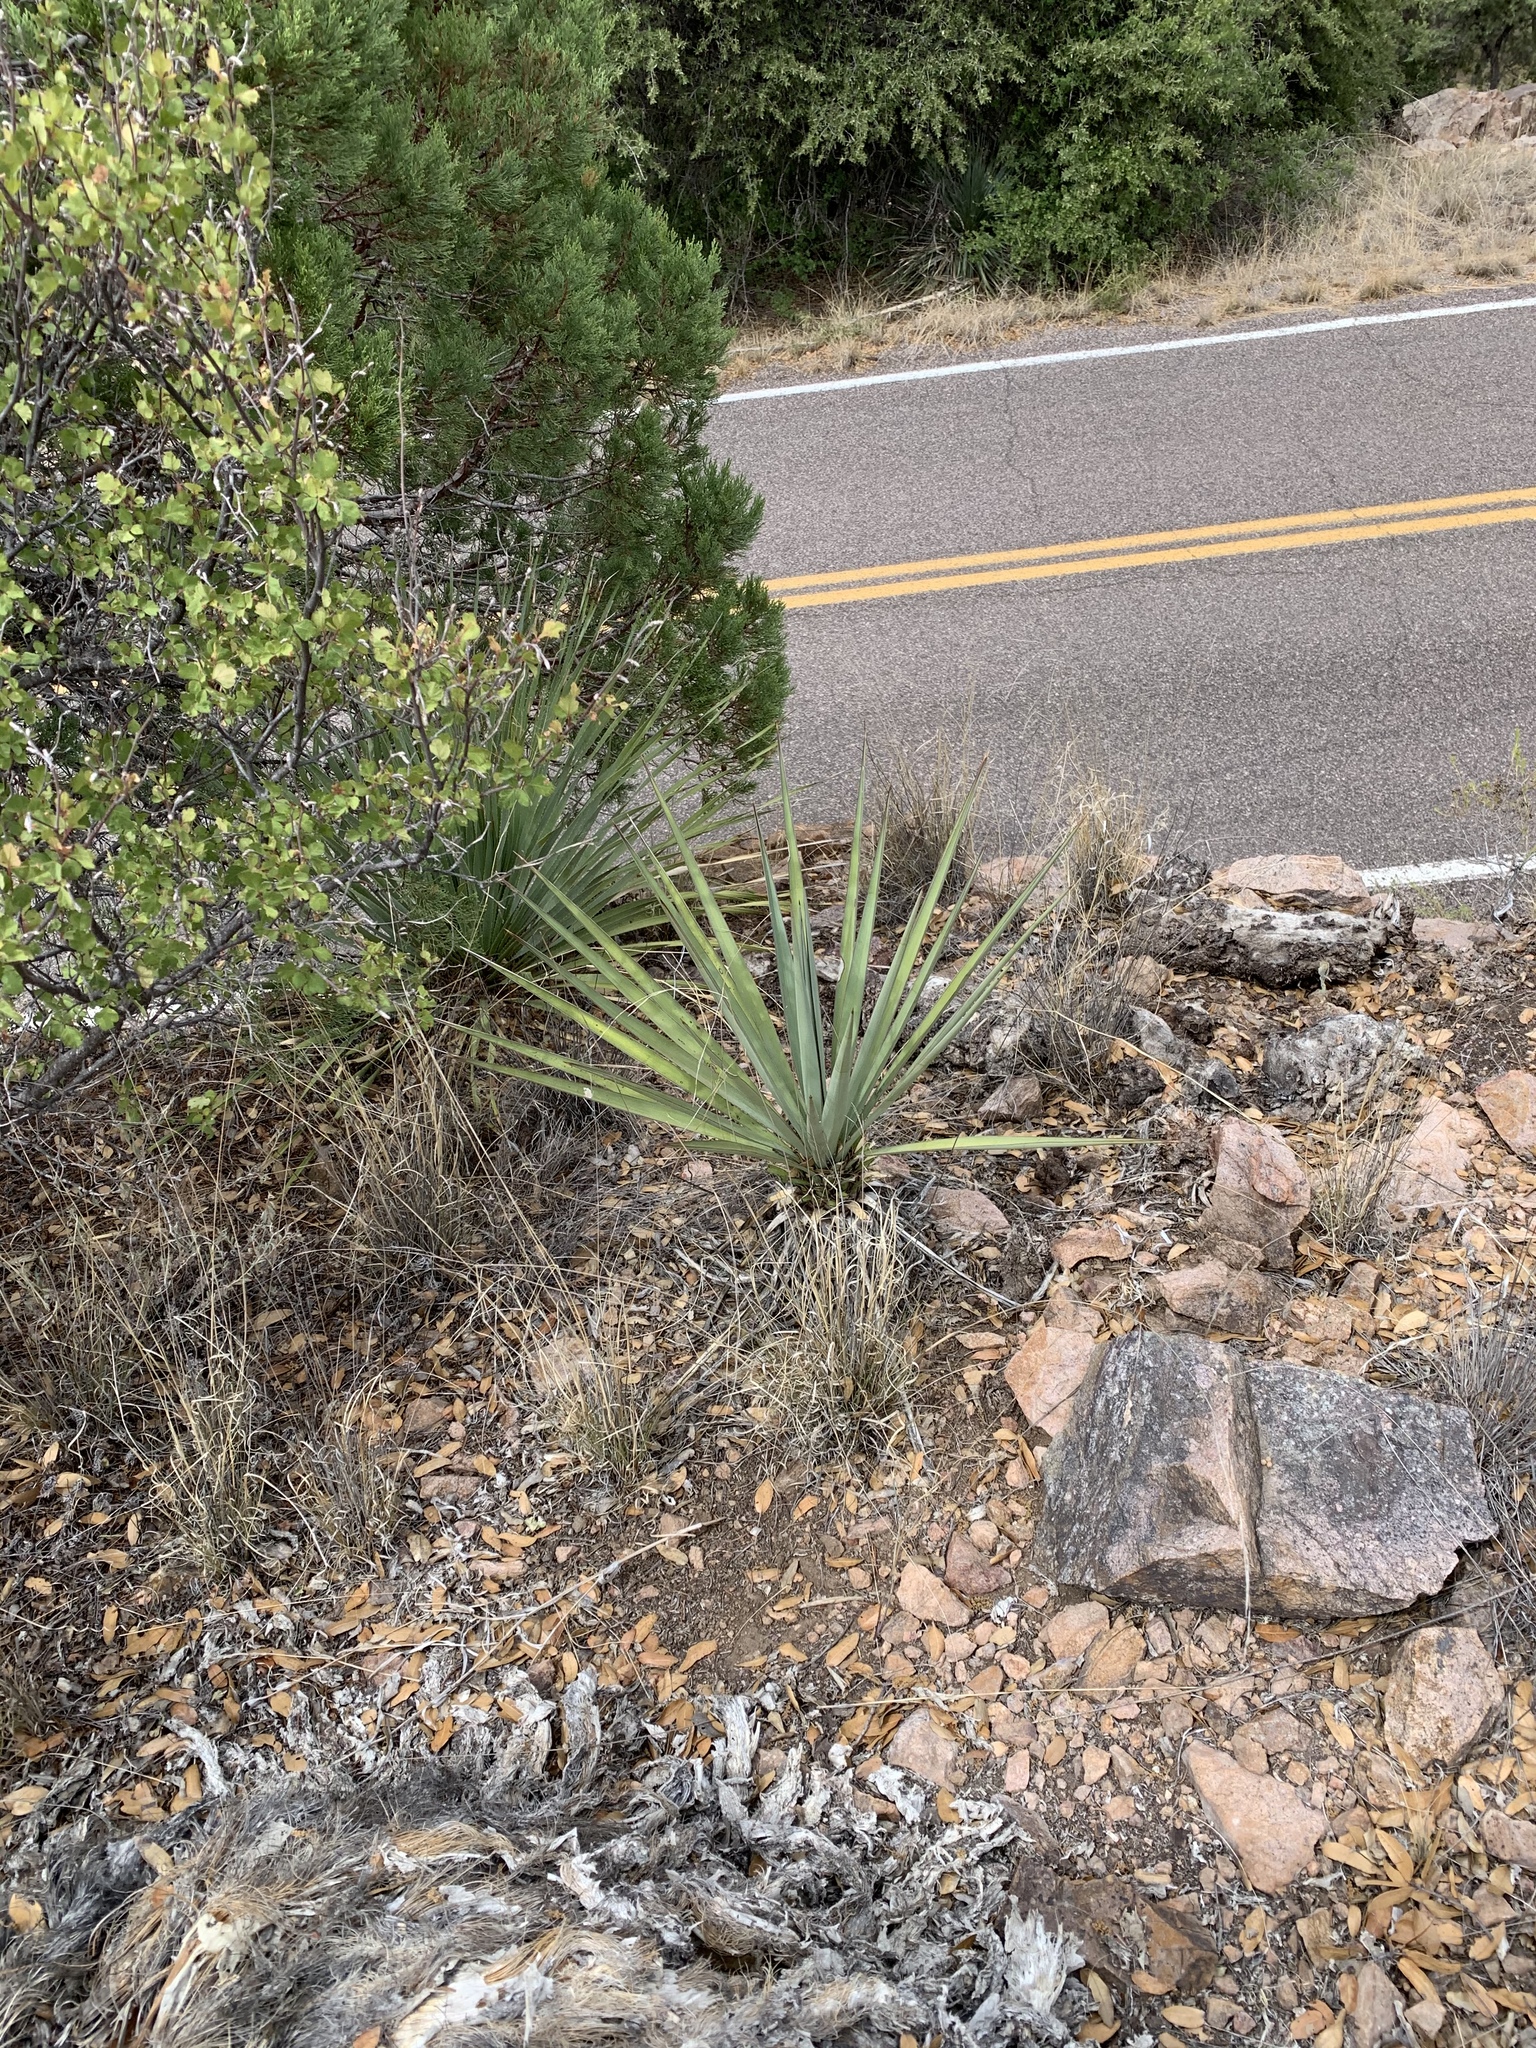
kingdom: Plantae
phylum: Tracheophyta
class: Liliopsida
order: Asparagales
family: Asparagaceae
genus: Yucca
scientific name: Yucca madrensis
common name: Hoary yucca
